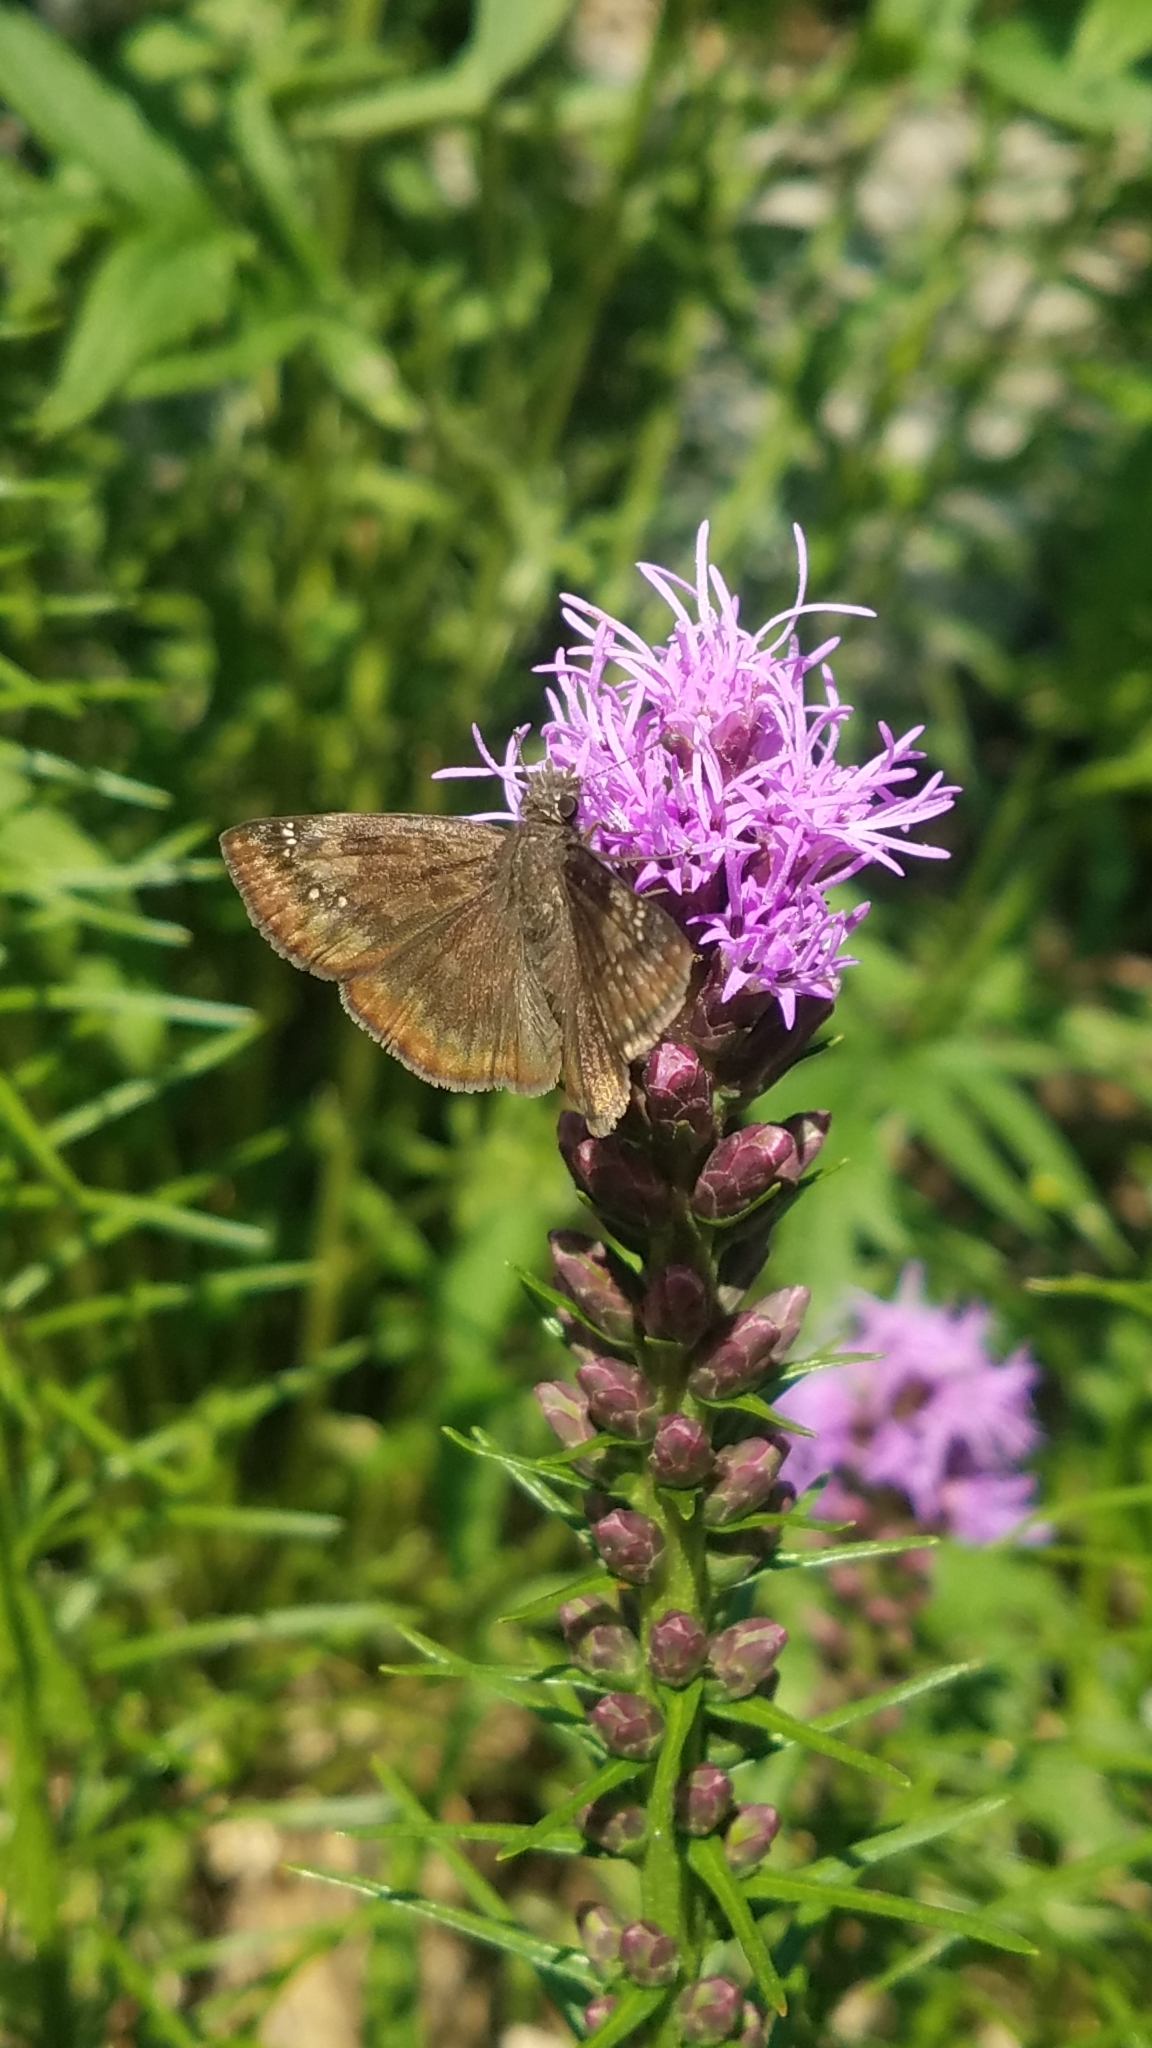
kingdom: Animalia
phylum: Arthropoda
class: Insecta
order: Lepidoptera
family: Hesperiidae
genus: Erynnis
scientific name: Erynnis baptisiae
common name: Wild indigo duskywing
